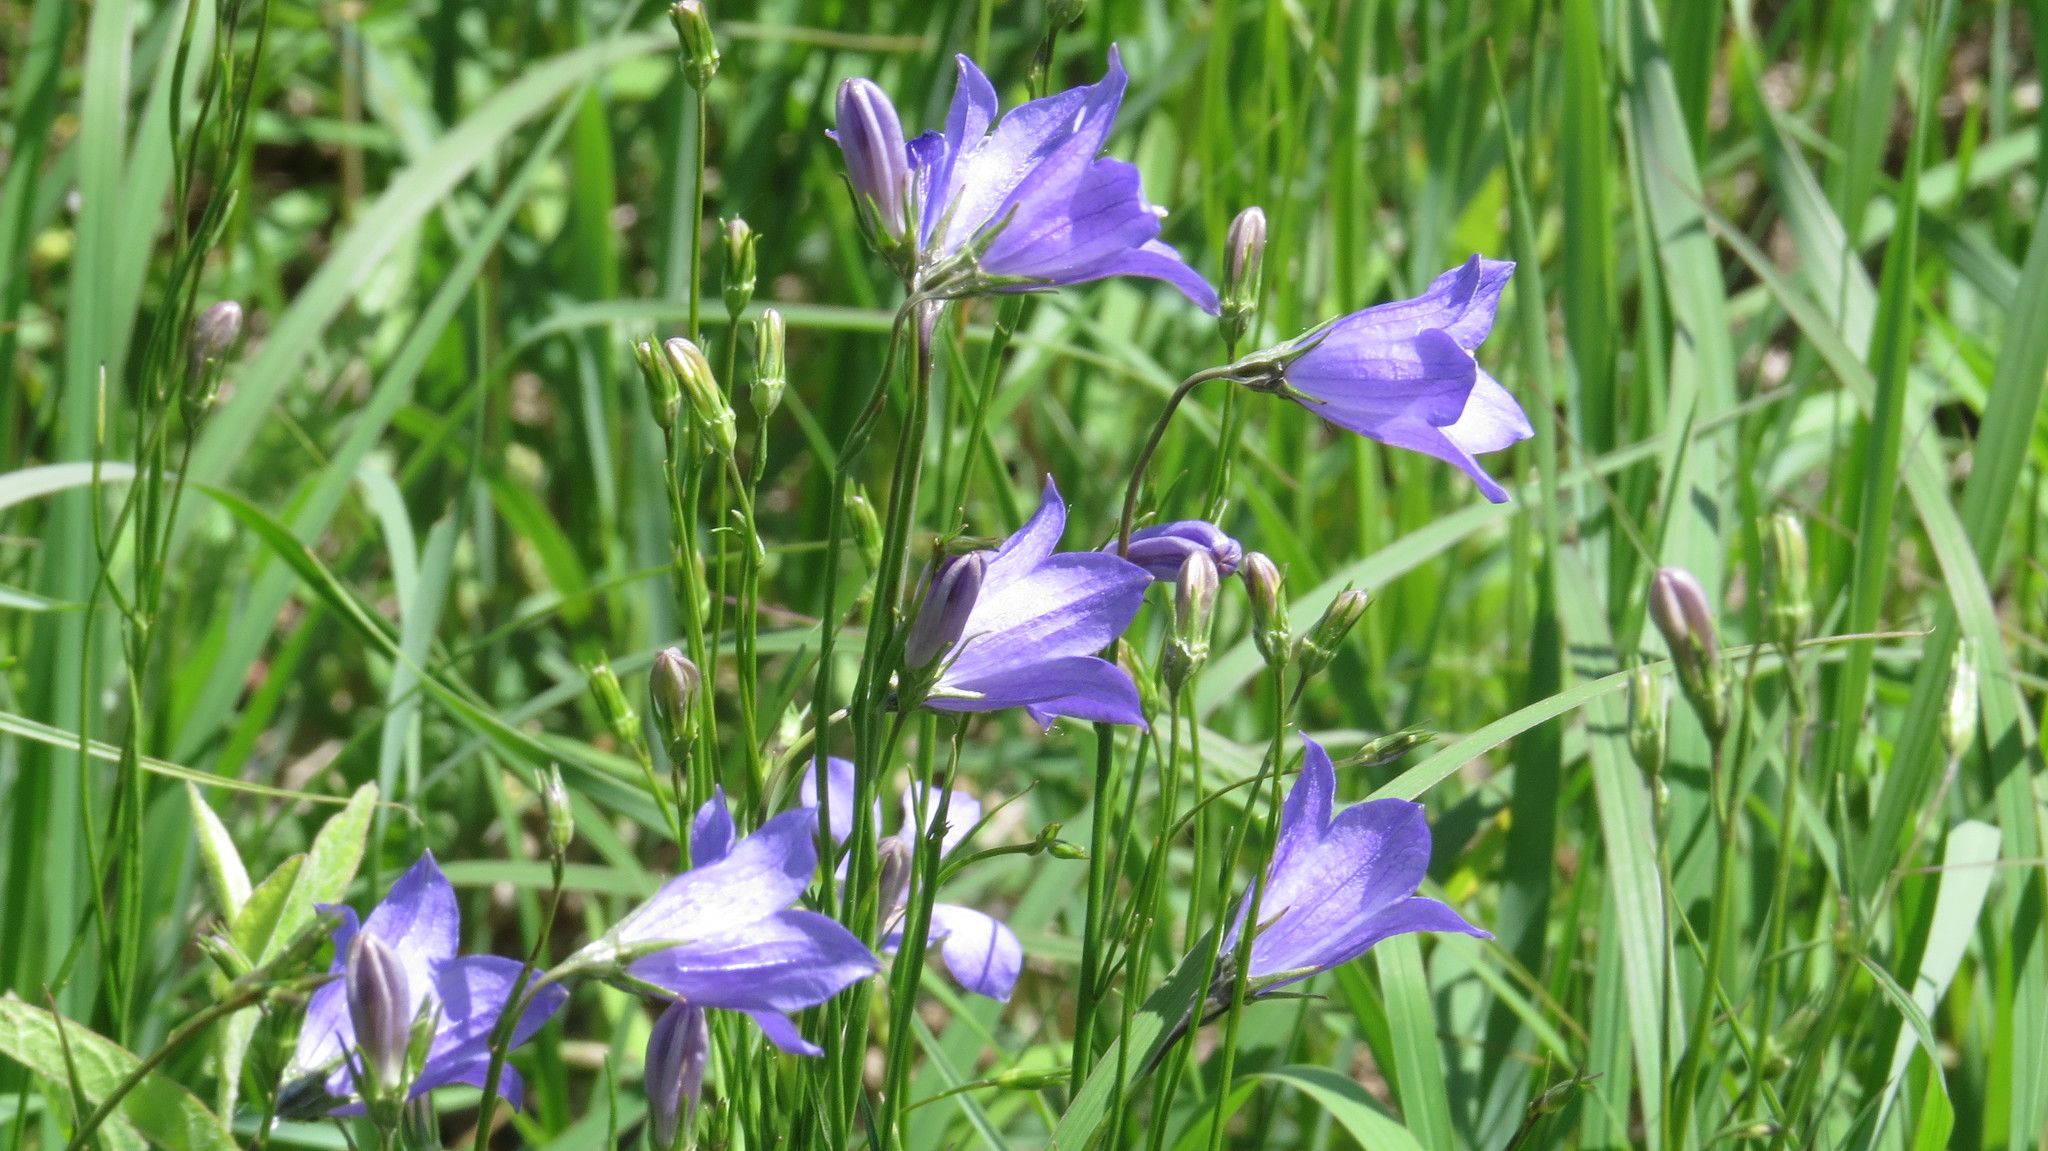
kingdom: Plantae
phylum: Tracheophyta
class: Magnoliopsida
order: Asterales
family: Campanulaceae
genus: Campanula
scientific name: Campanula intercedens
